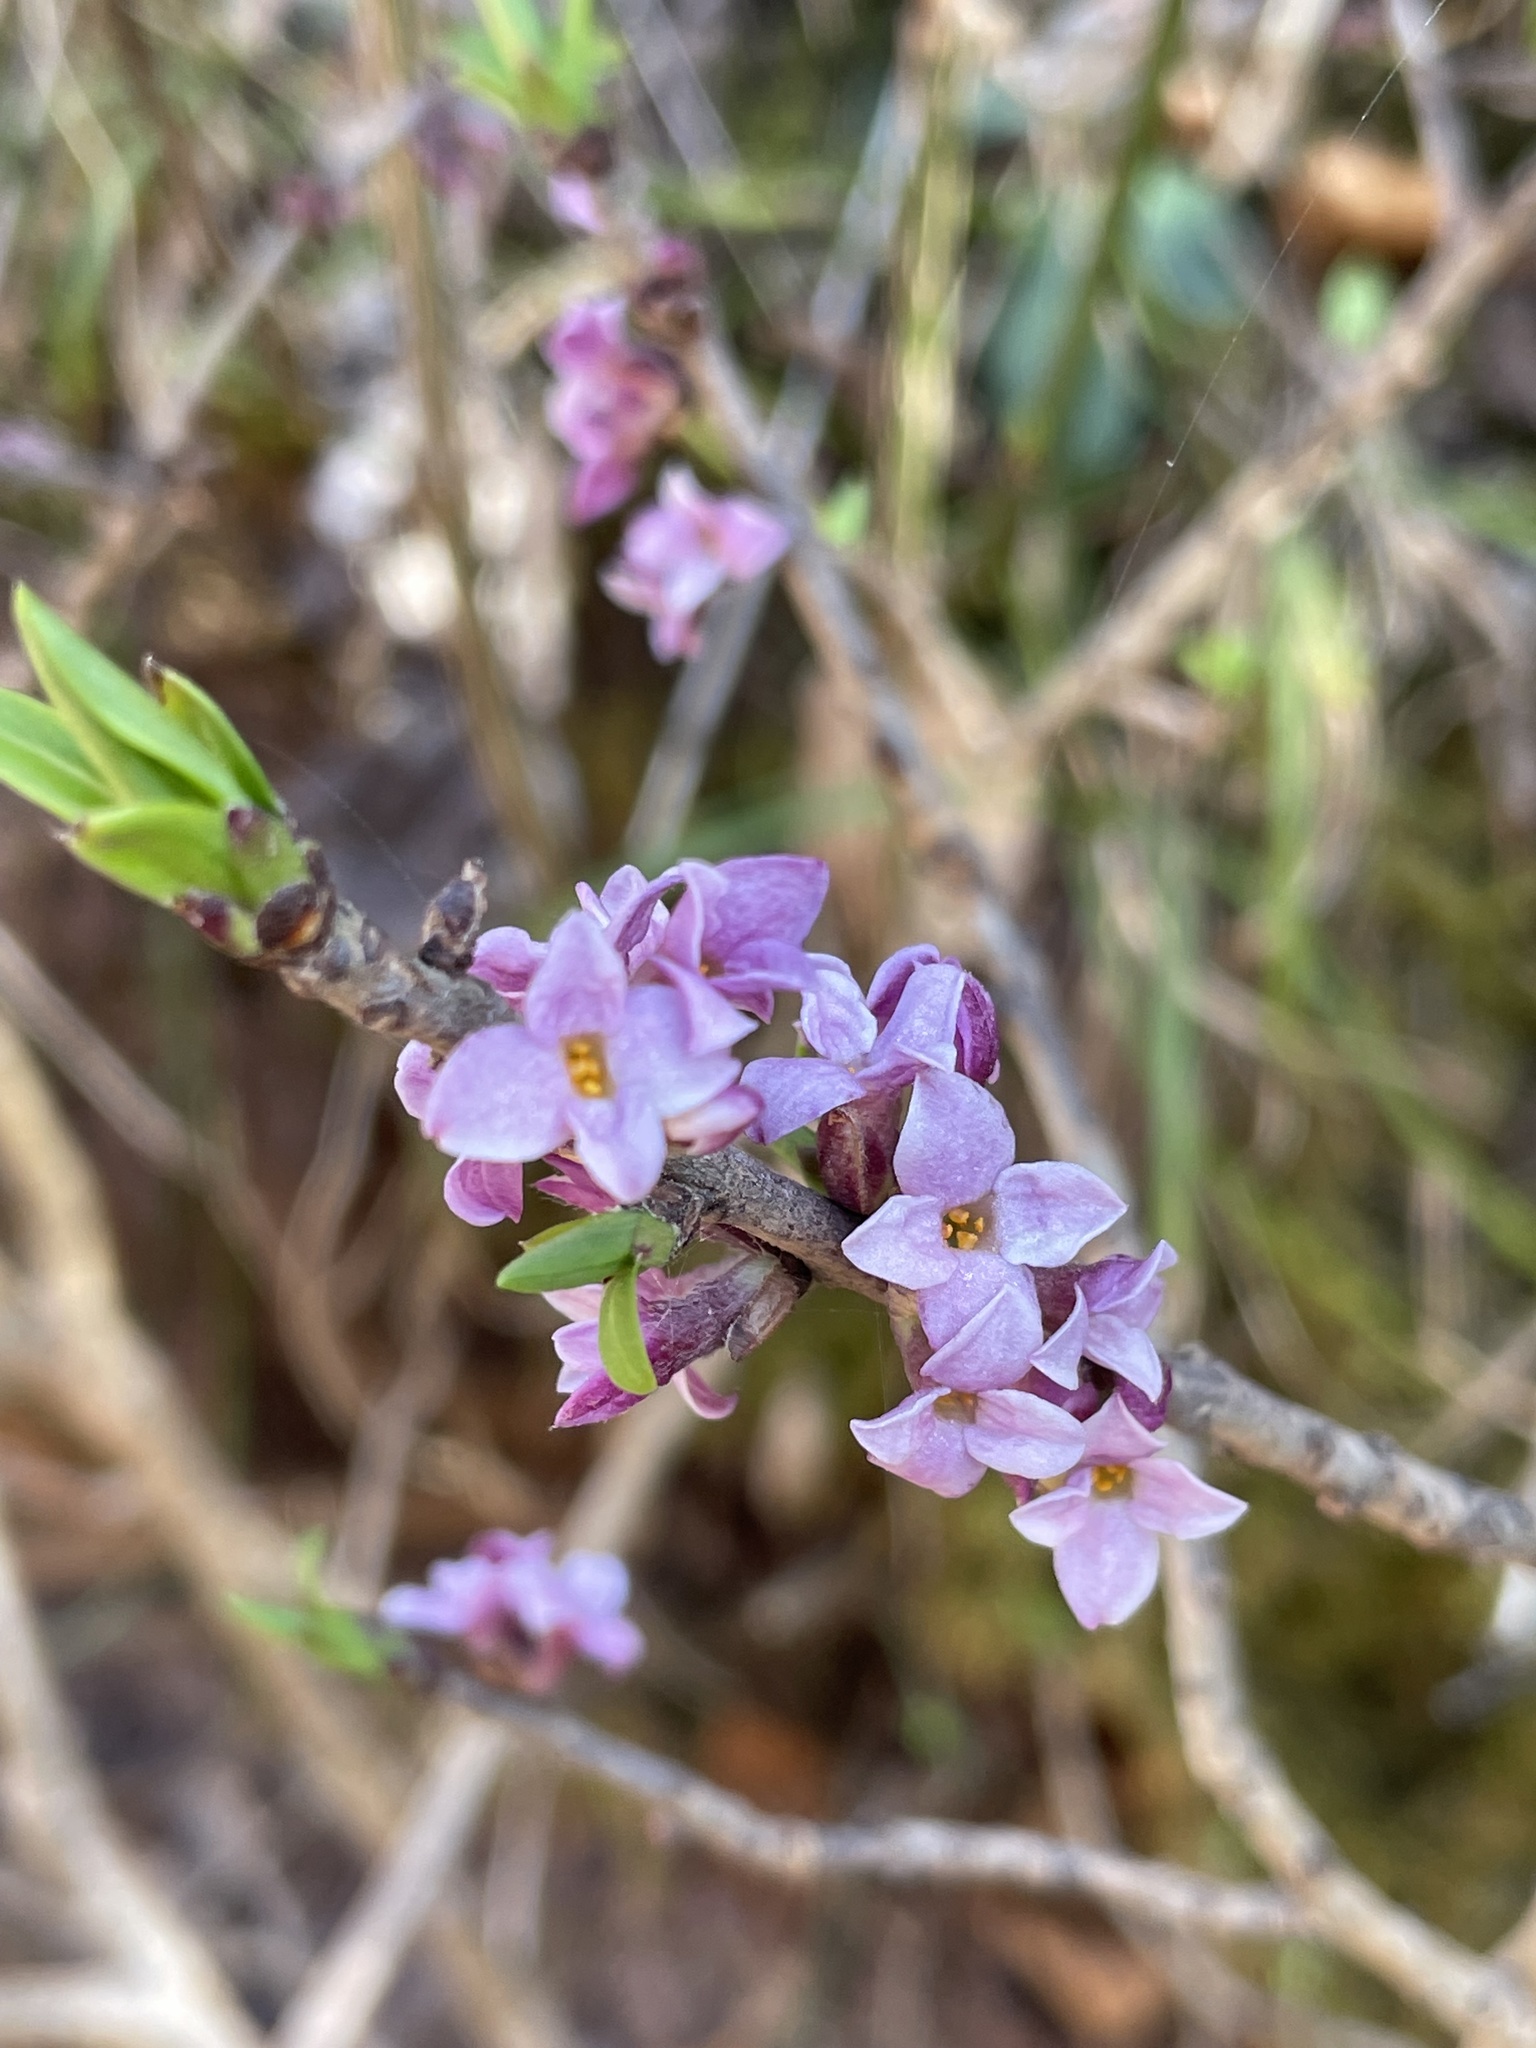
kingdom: Plantae
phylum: Tracheophyta
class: Magnoliopsida
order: Malvales
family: Thymelaeaceae
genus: Daphne
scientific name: Daphne mezereum
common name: Mezereon
